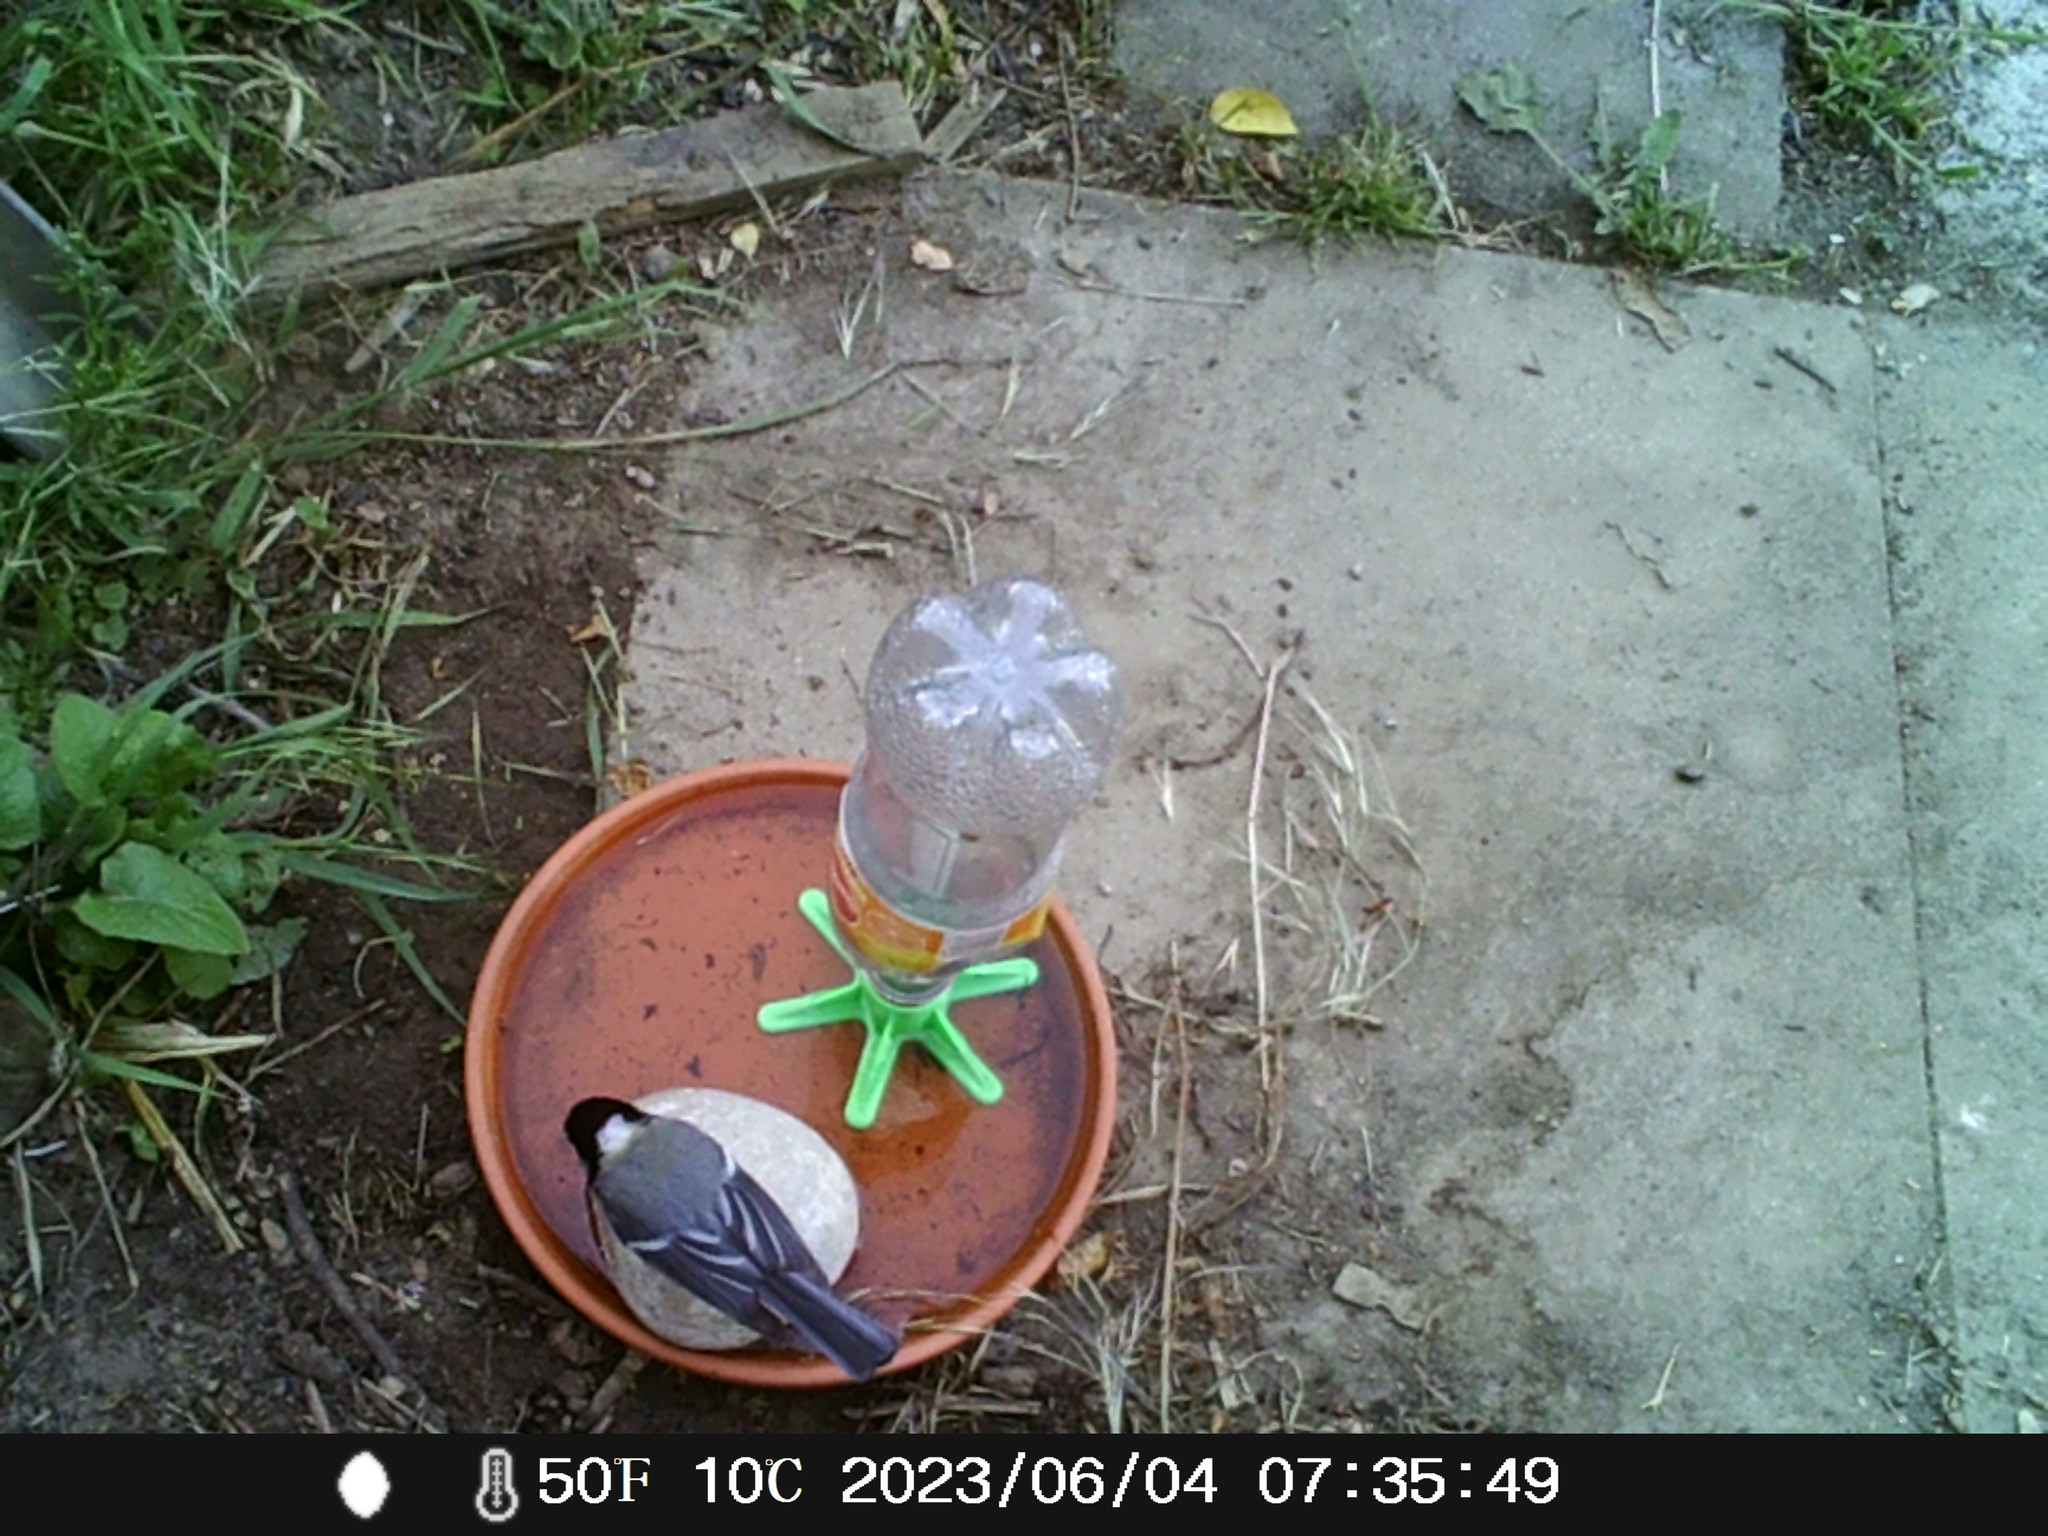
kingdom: Animalia
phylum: Chordata
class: Aves
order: Passeriformes
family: Paridae
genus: Parus
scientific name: Parus major
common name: Great tit
